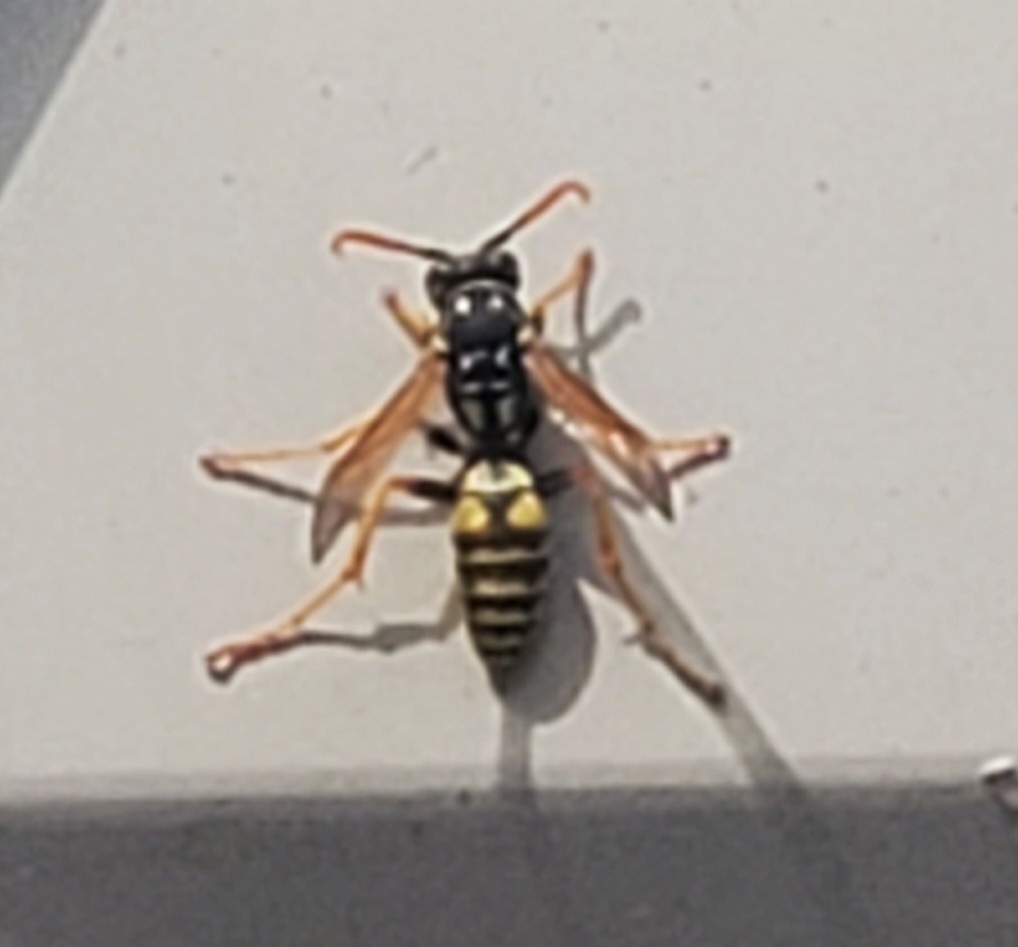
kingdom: Animalia
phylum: Arthropoda
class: Insecta
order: Hymenoptera
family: Eumenidae
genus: Polistes
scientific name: Polistes dominula
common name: Paper wasp
